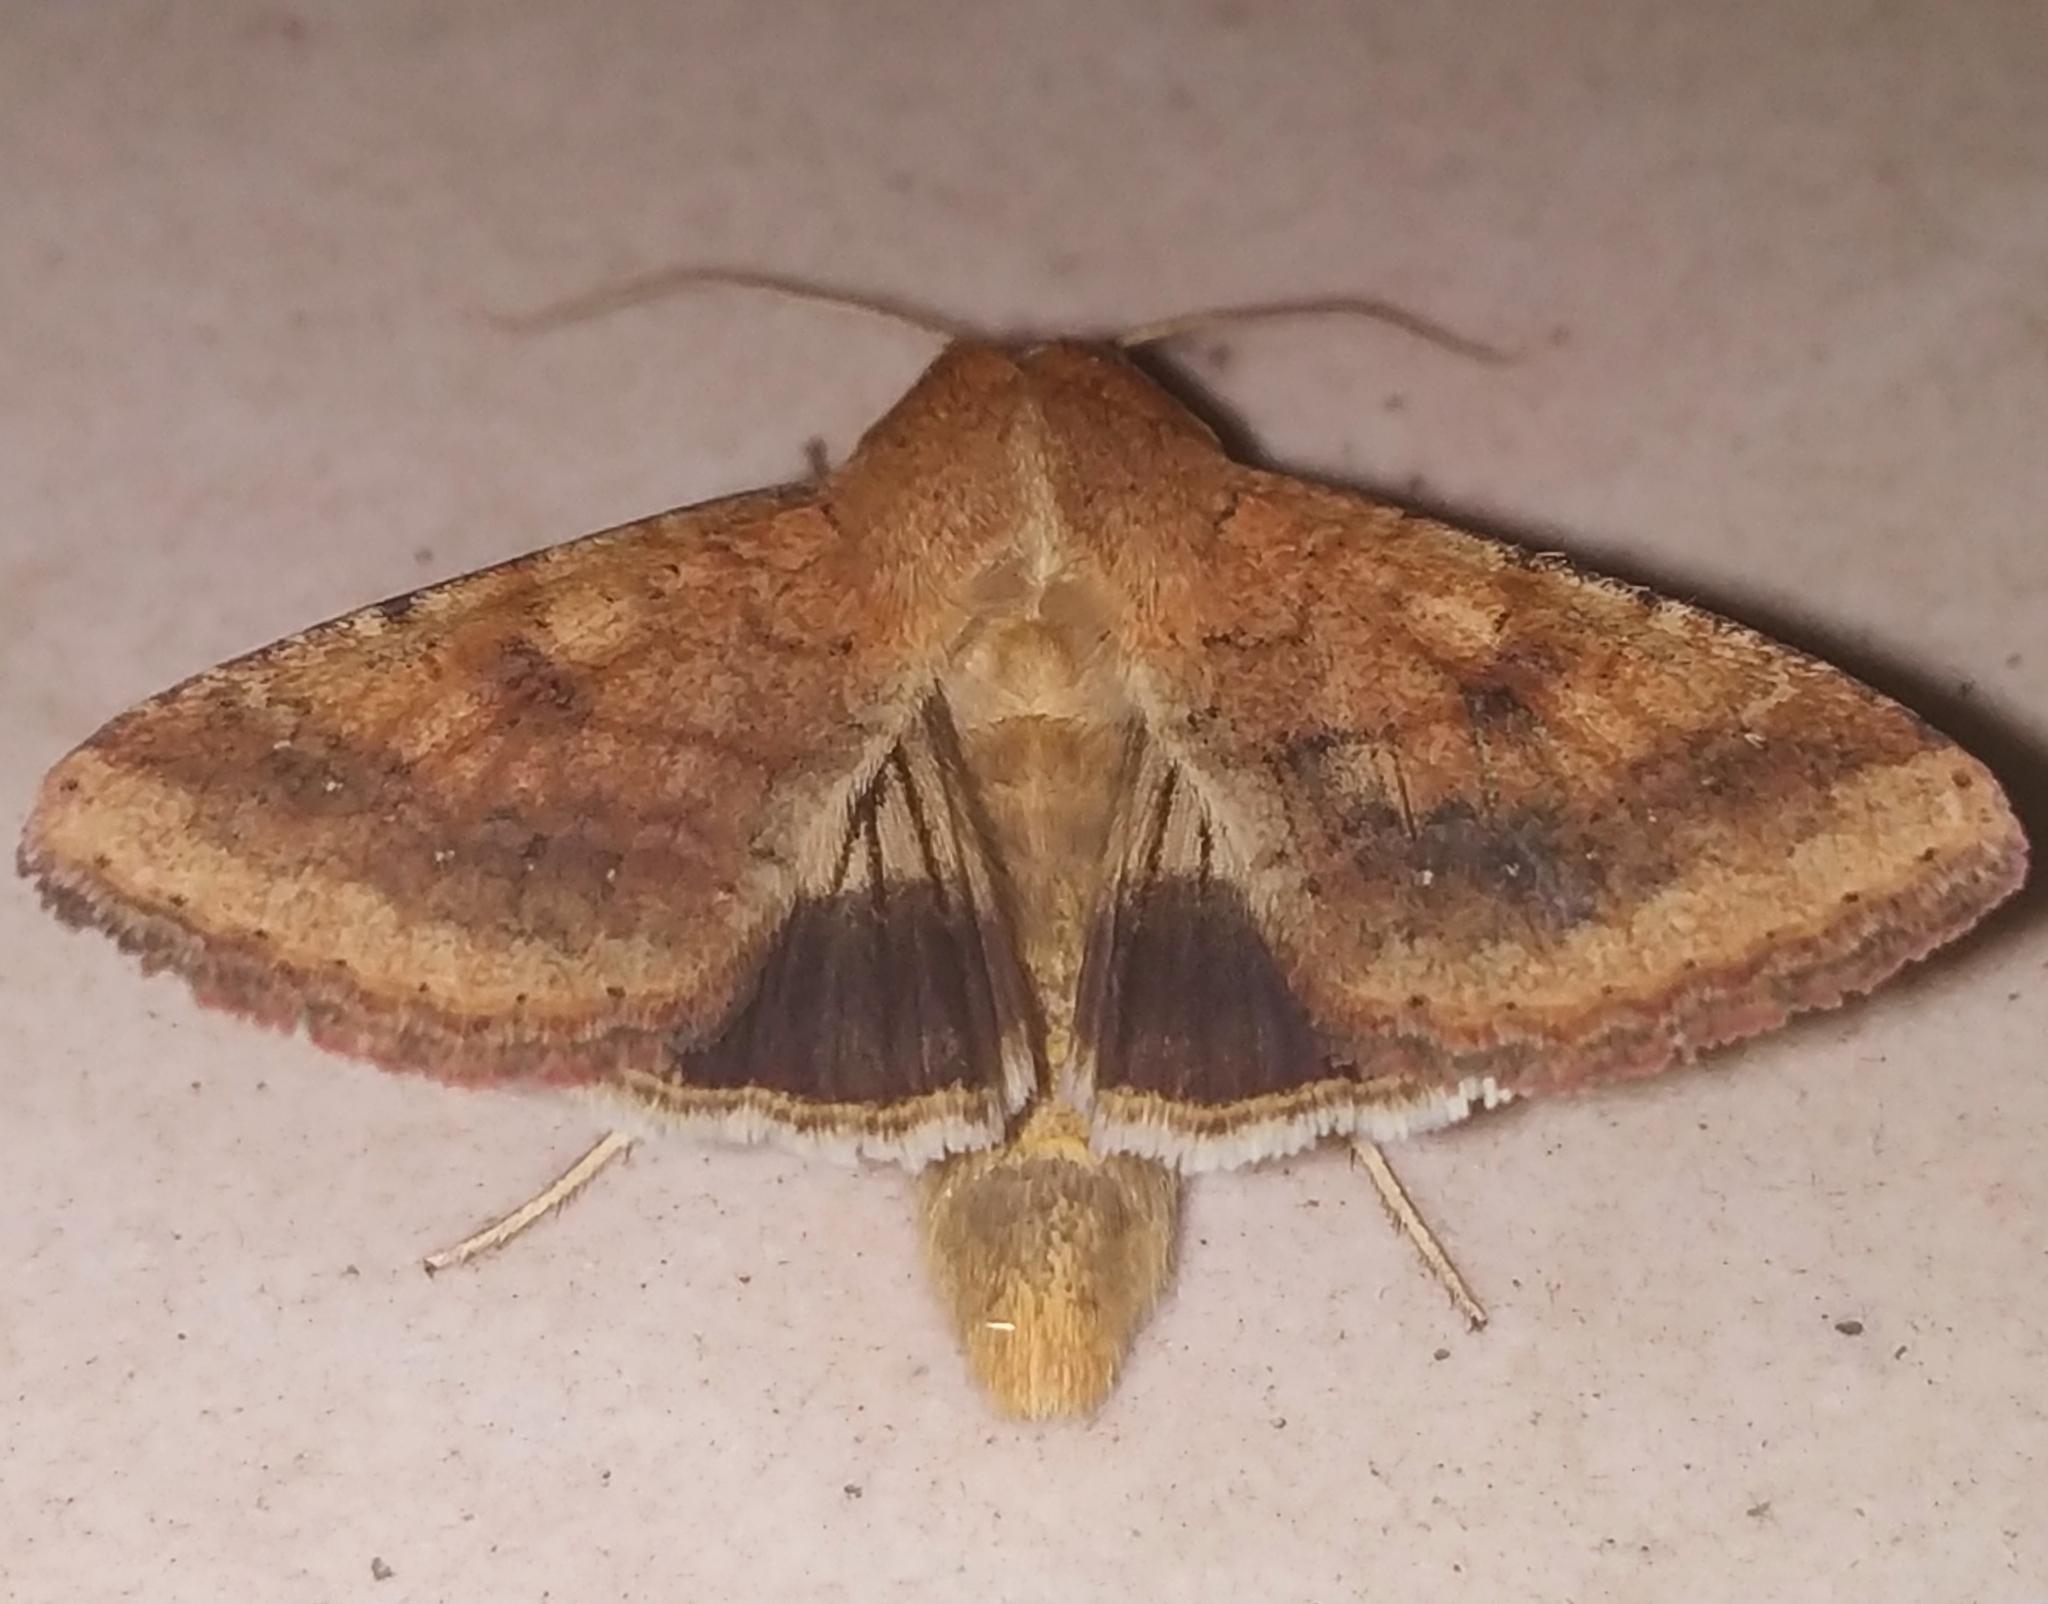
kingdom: Animalia
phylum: Arthropoda
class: Insecta
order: Lepidoptera
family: Noctuidae
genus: Helicoverpa
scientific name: Helicoverpa armigera
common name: Cotton bollworm
